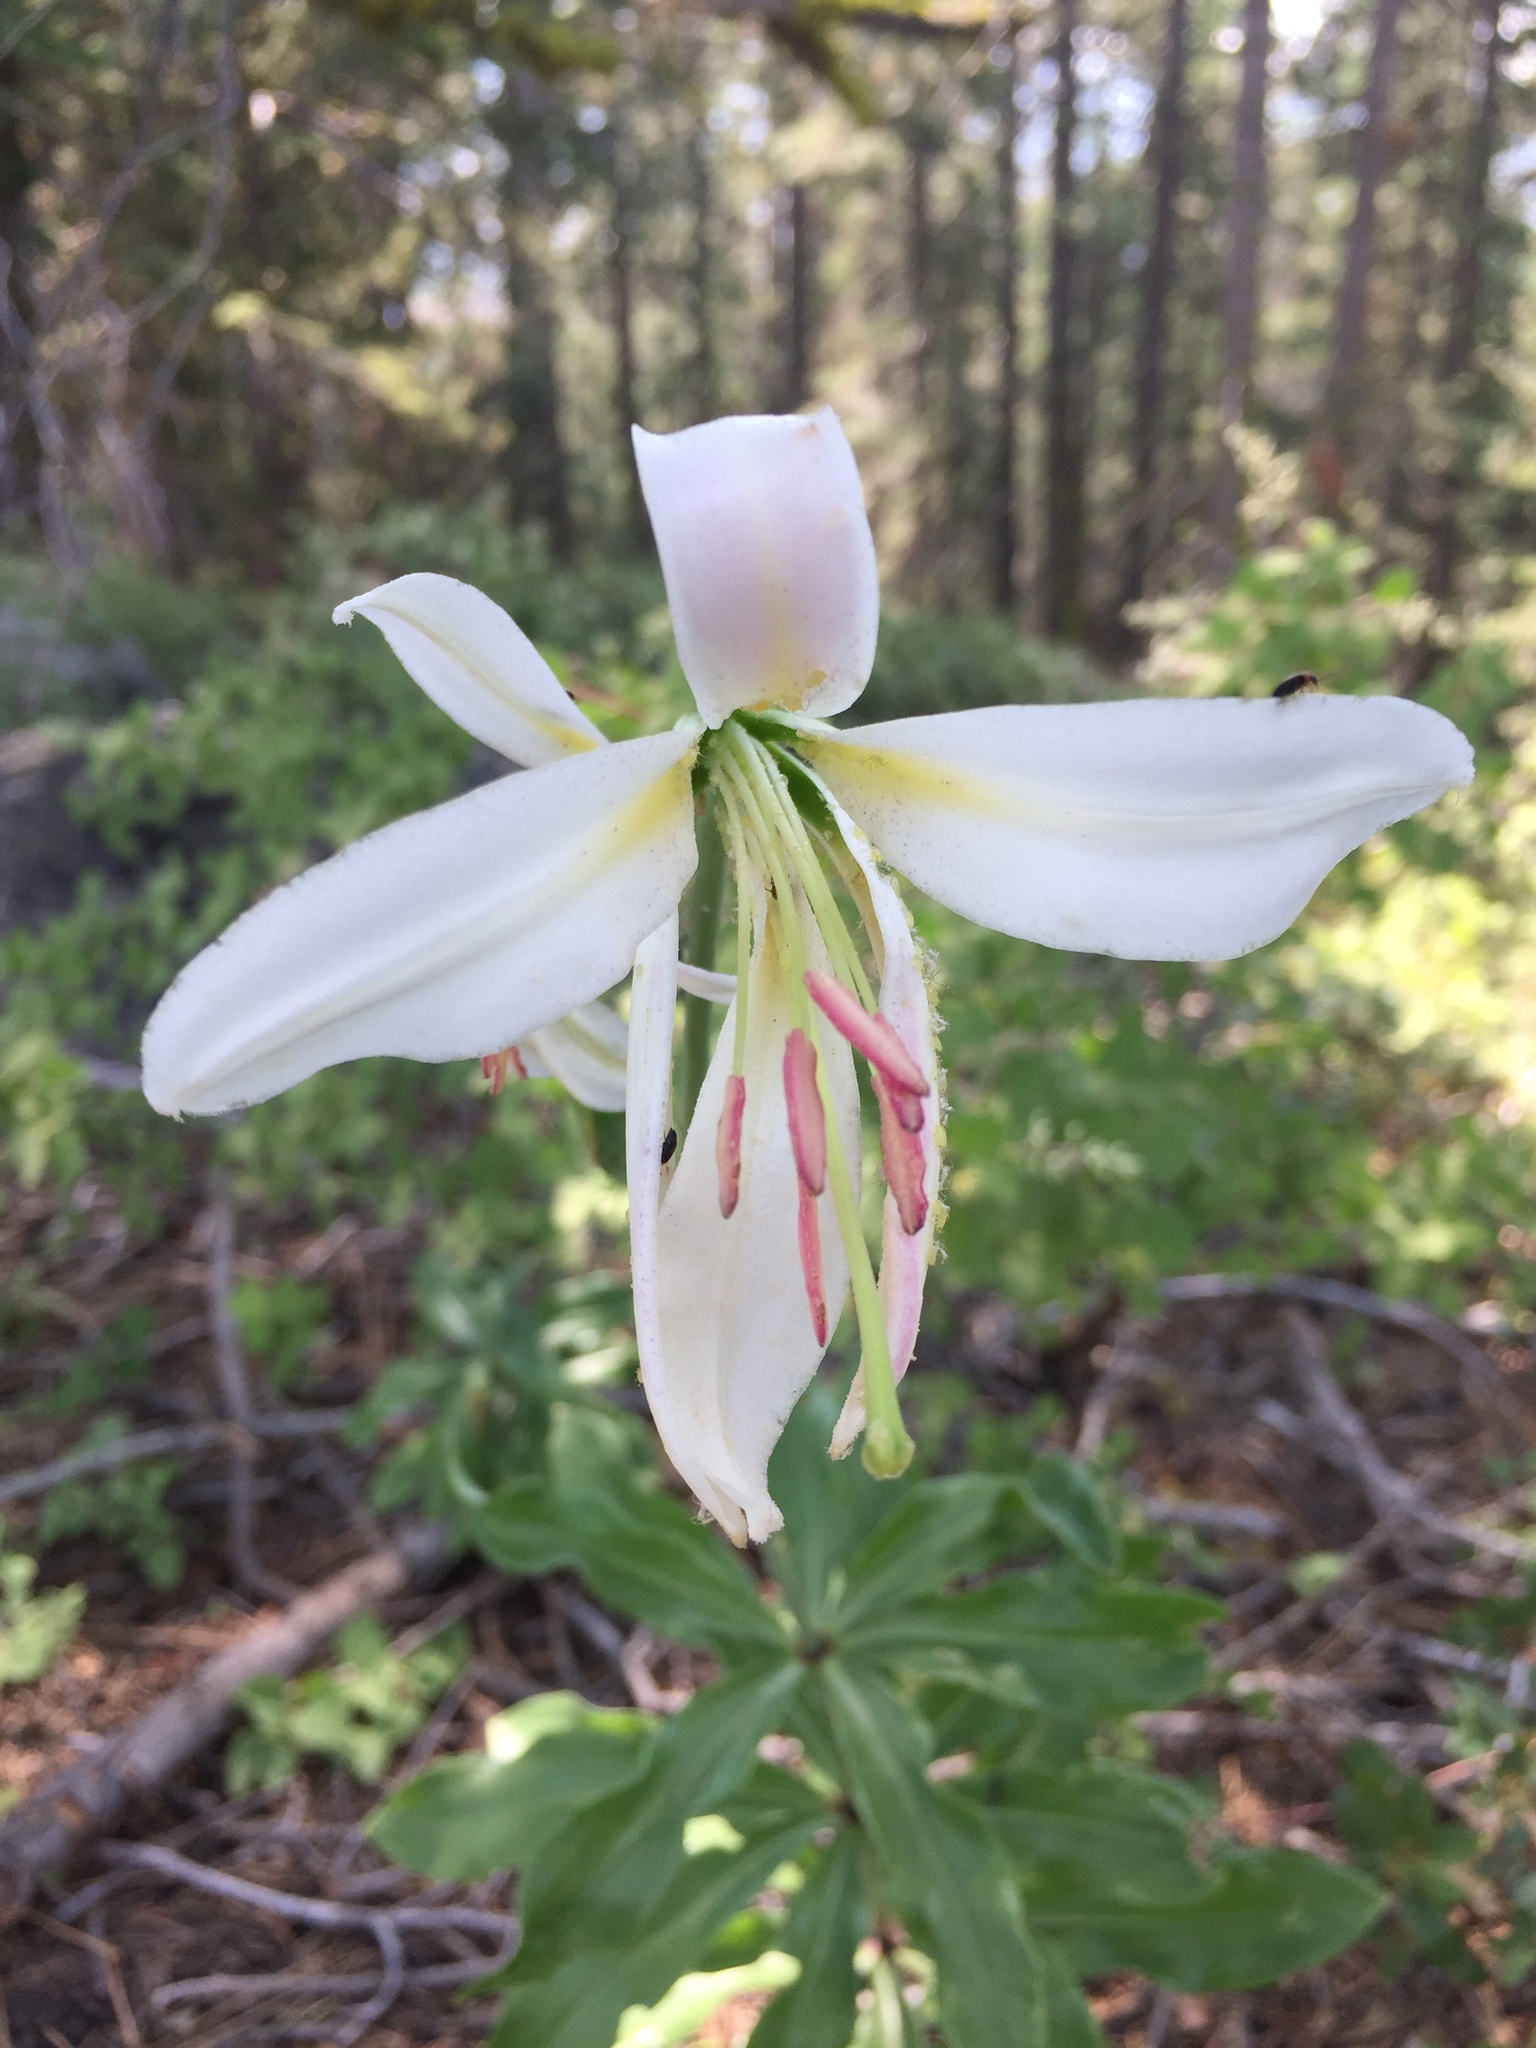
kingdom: Plantae
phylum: Tracheophyta
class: Liliopsida
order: Liliales
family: Liliaceae
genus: Lilium
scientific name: Lilium washingtonianum
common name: Washington lily
